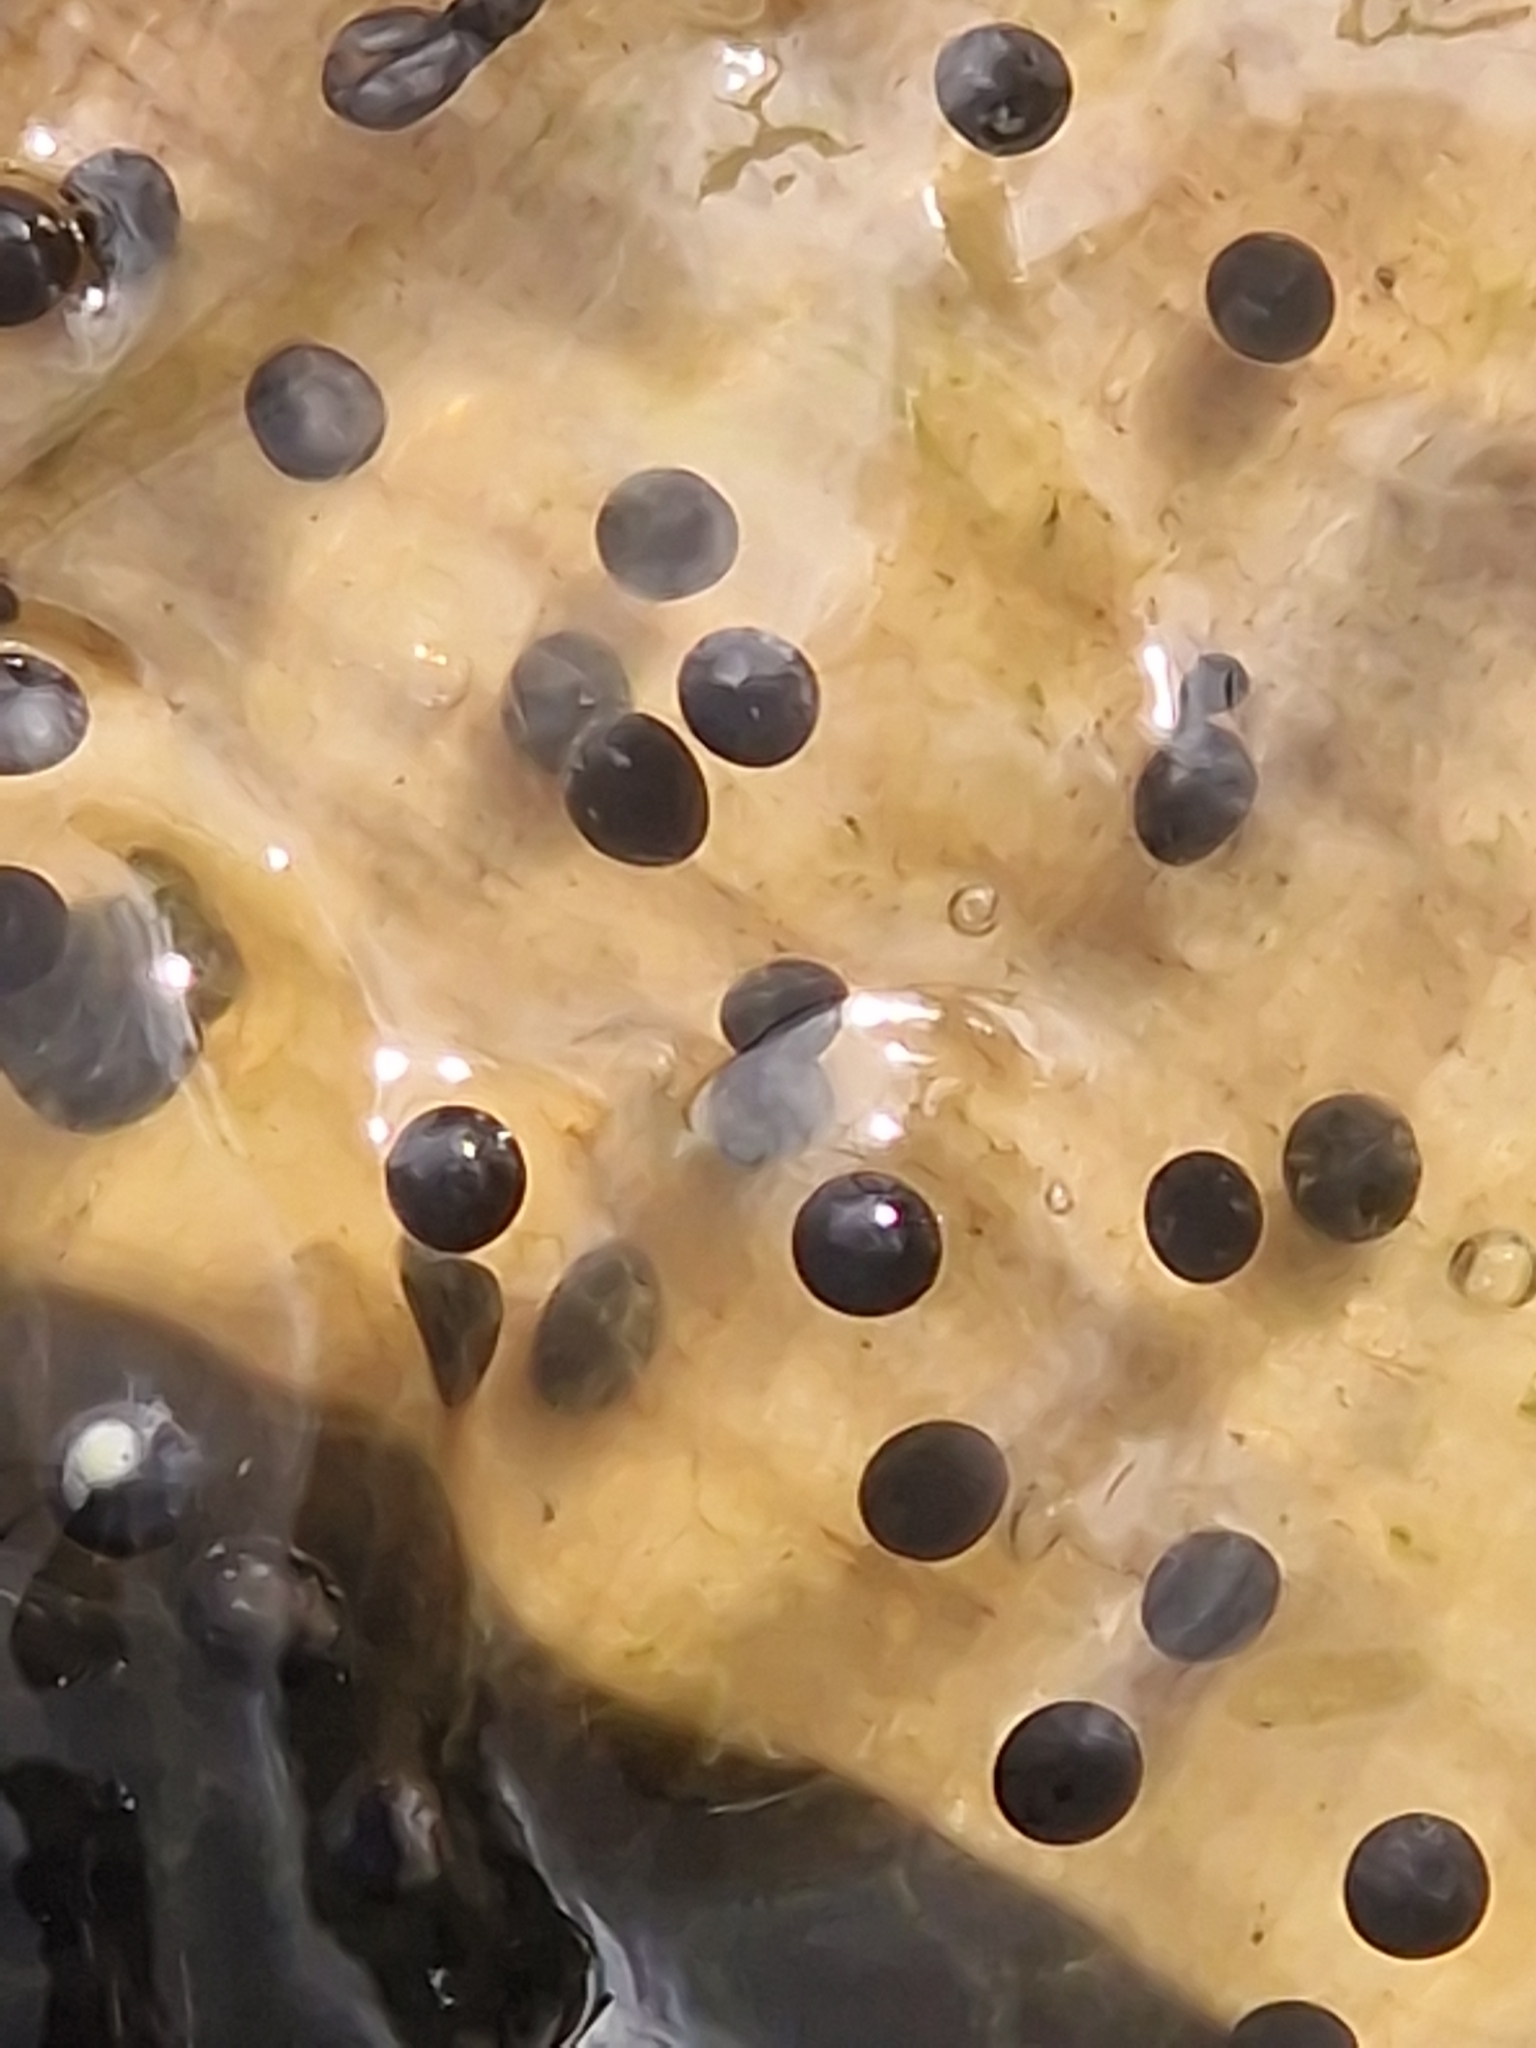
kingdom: Animalia
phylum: Chordata
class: Amphibia
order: Anura
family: Ranidae
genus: Rana
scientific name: Rana temporaria
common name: Common frog
